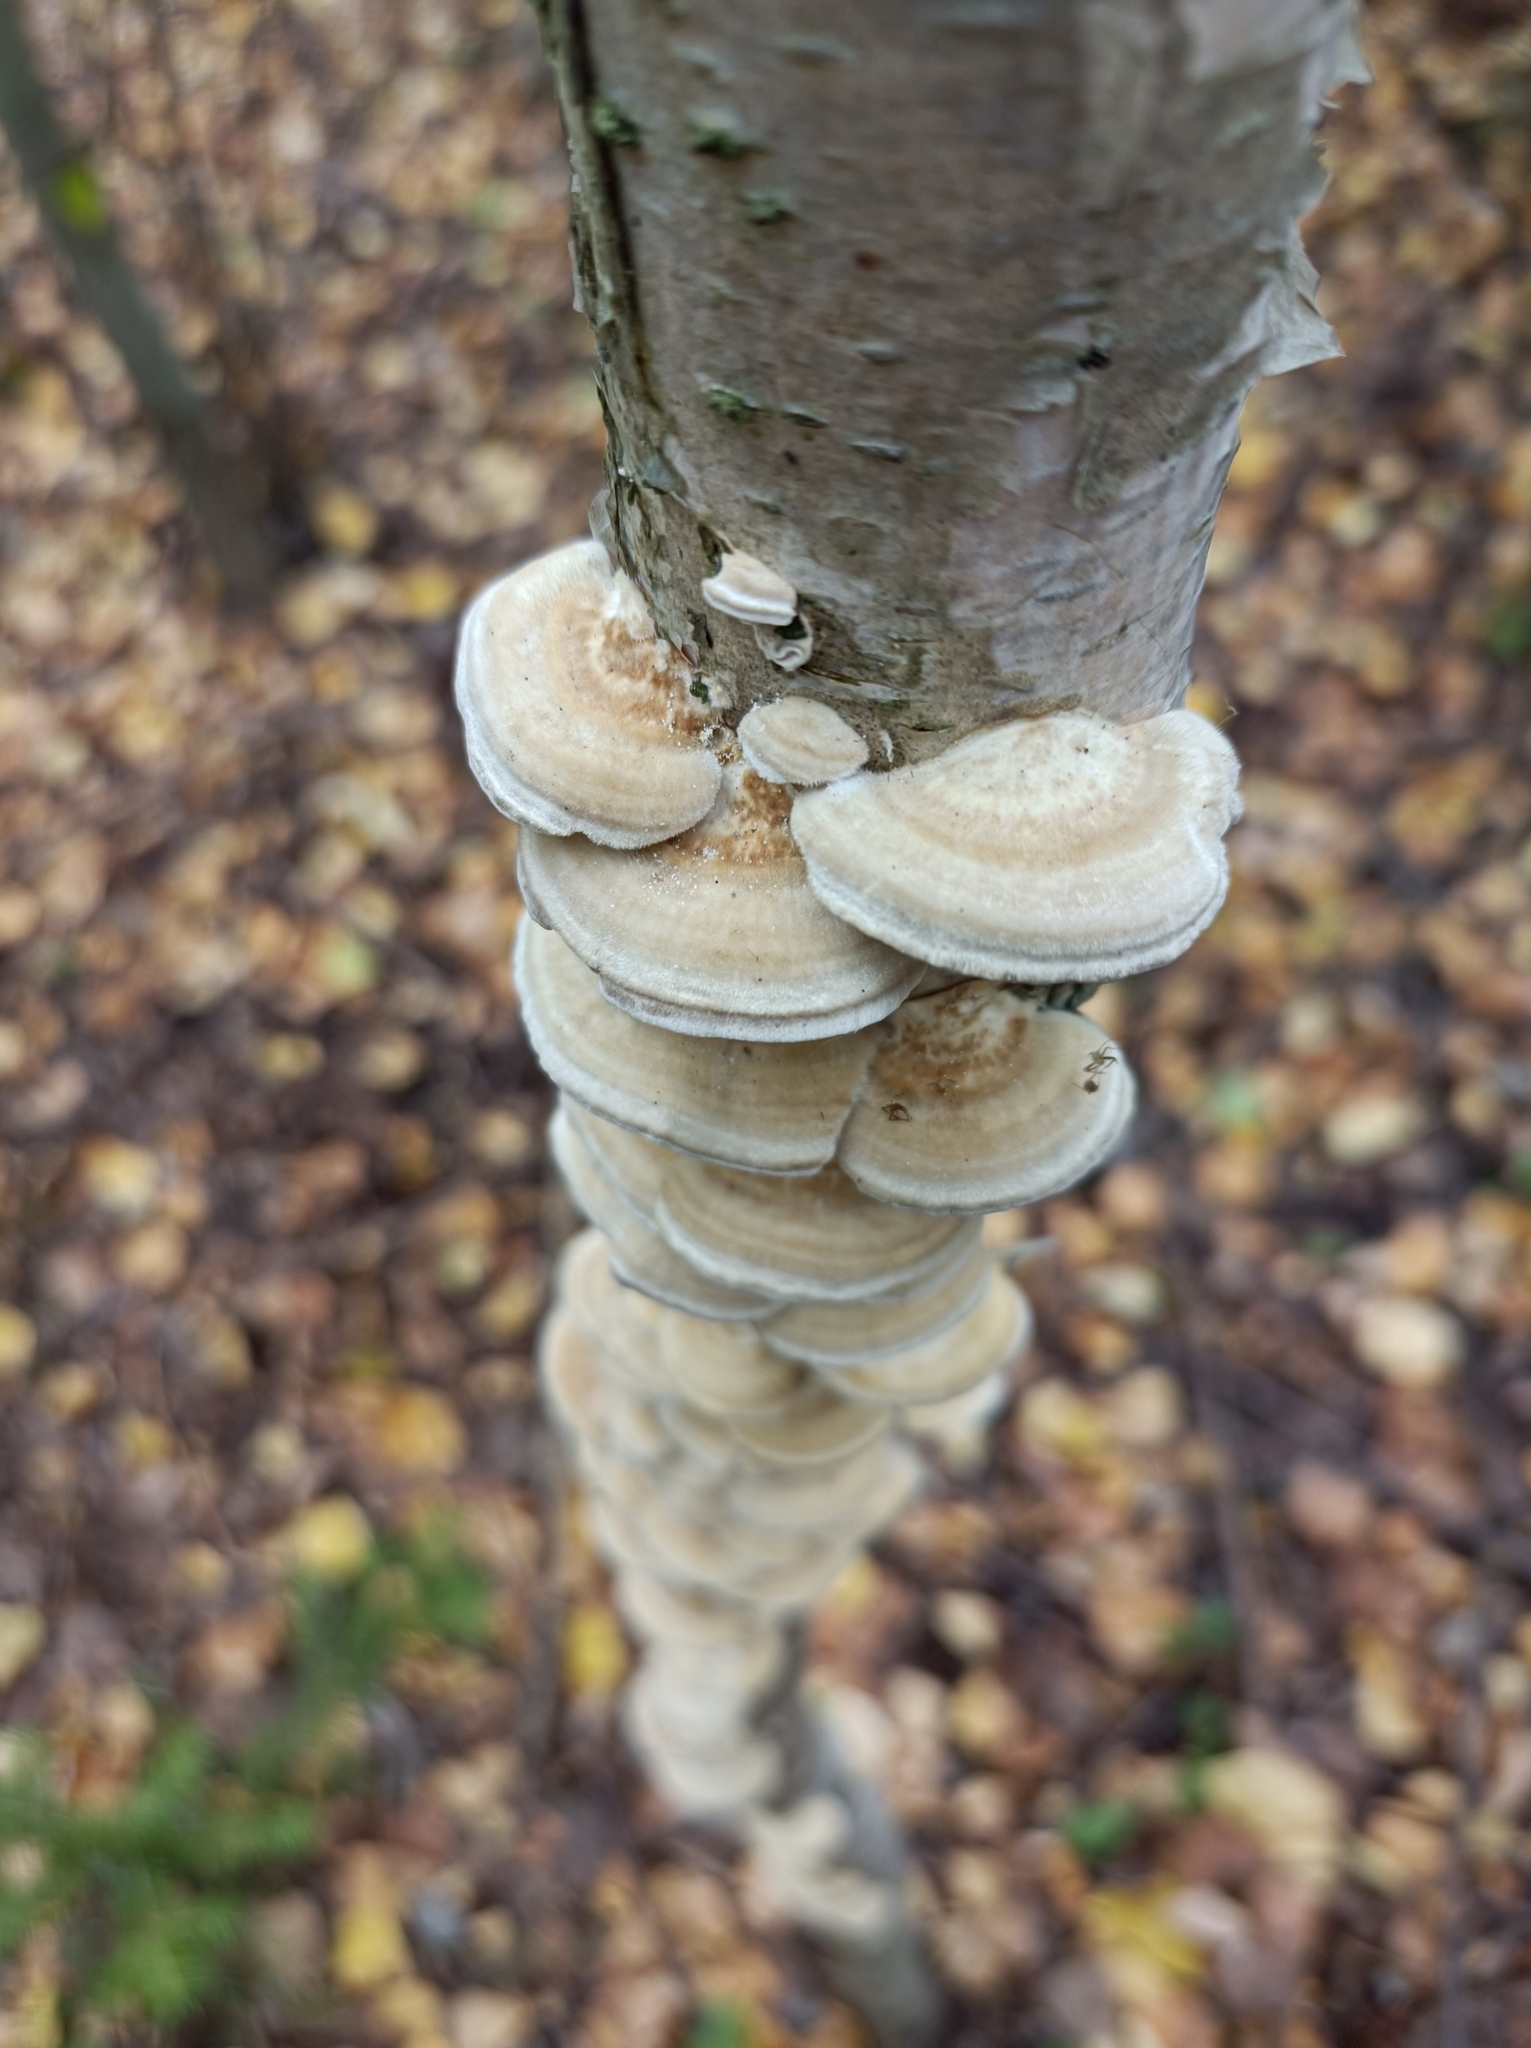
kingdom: Fungi
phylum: Basidiomycota
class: Agaricomycetes
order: Polyporales
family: Polyporaceae
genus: Trametes
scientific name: Trametes pubescens
